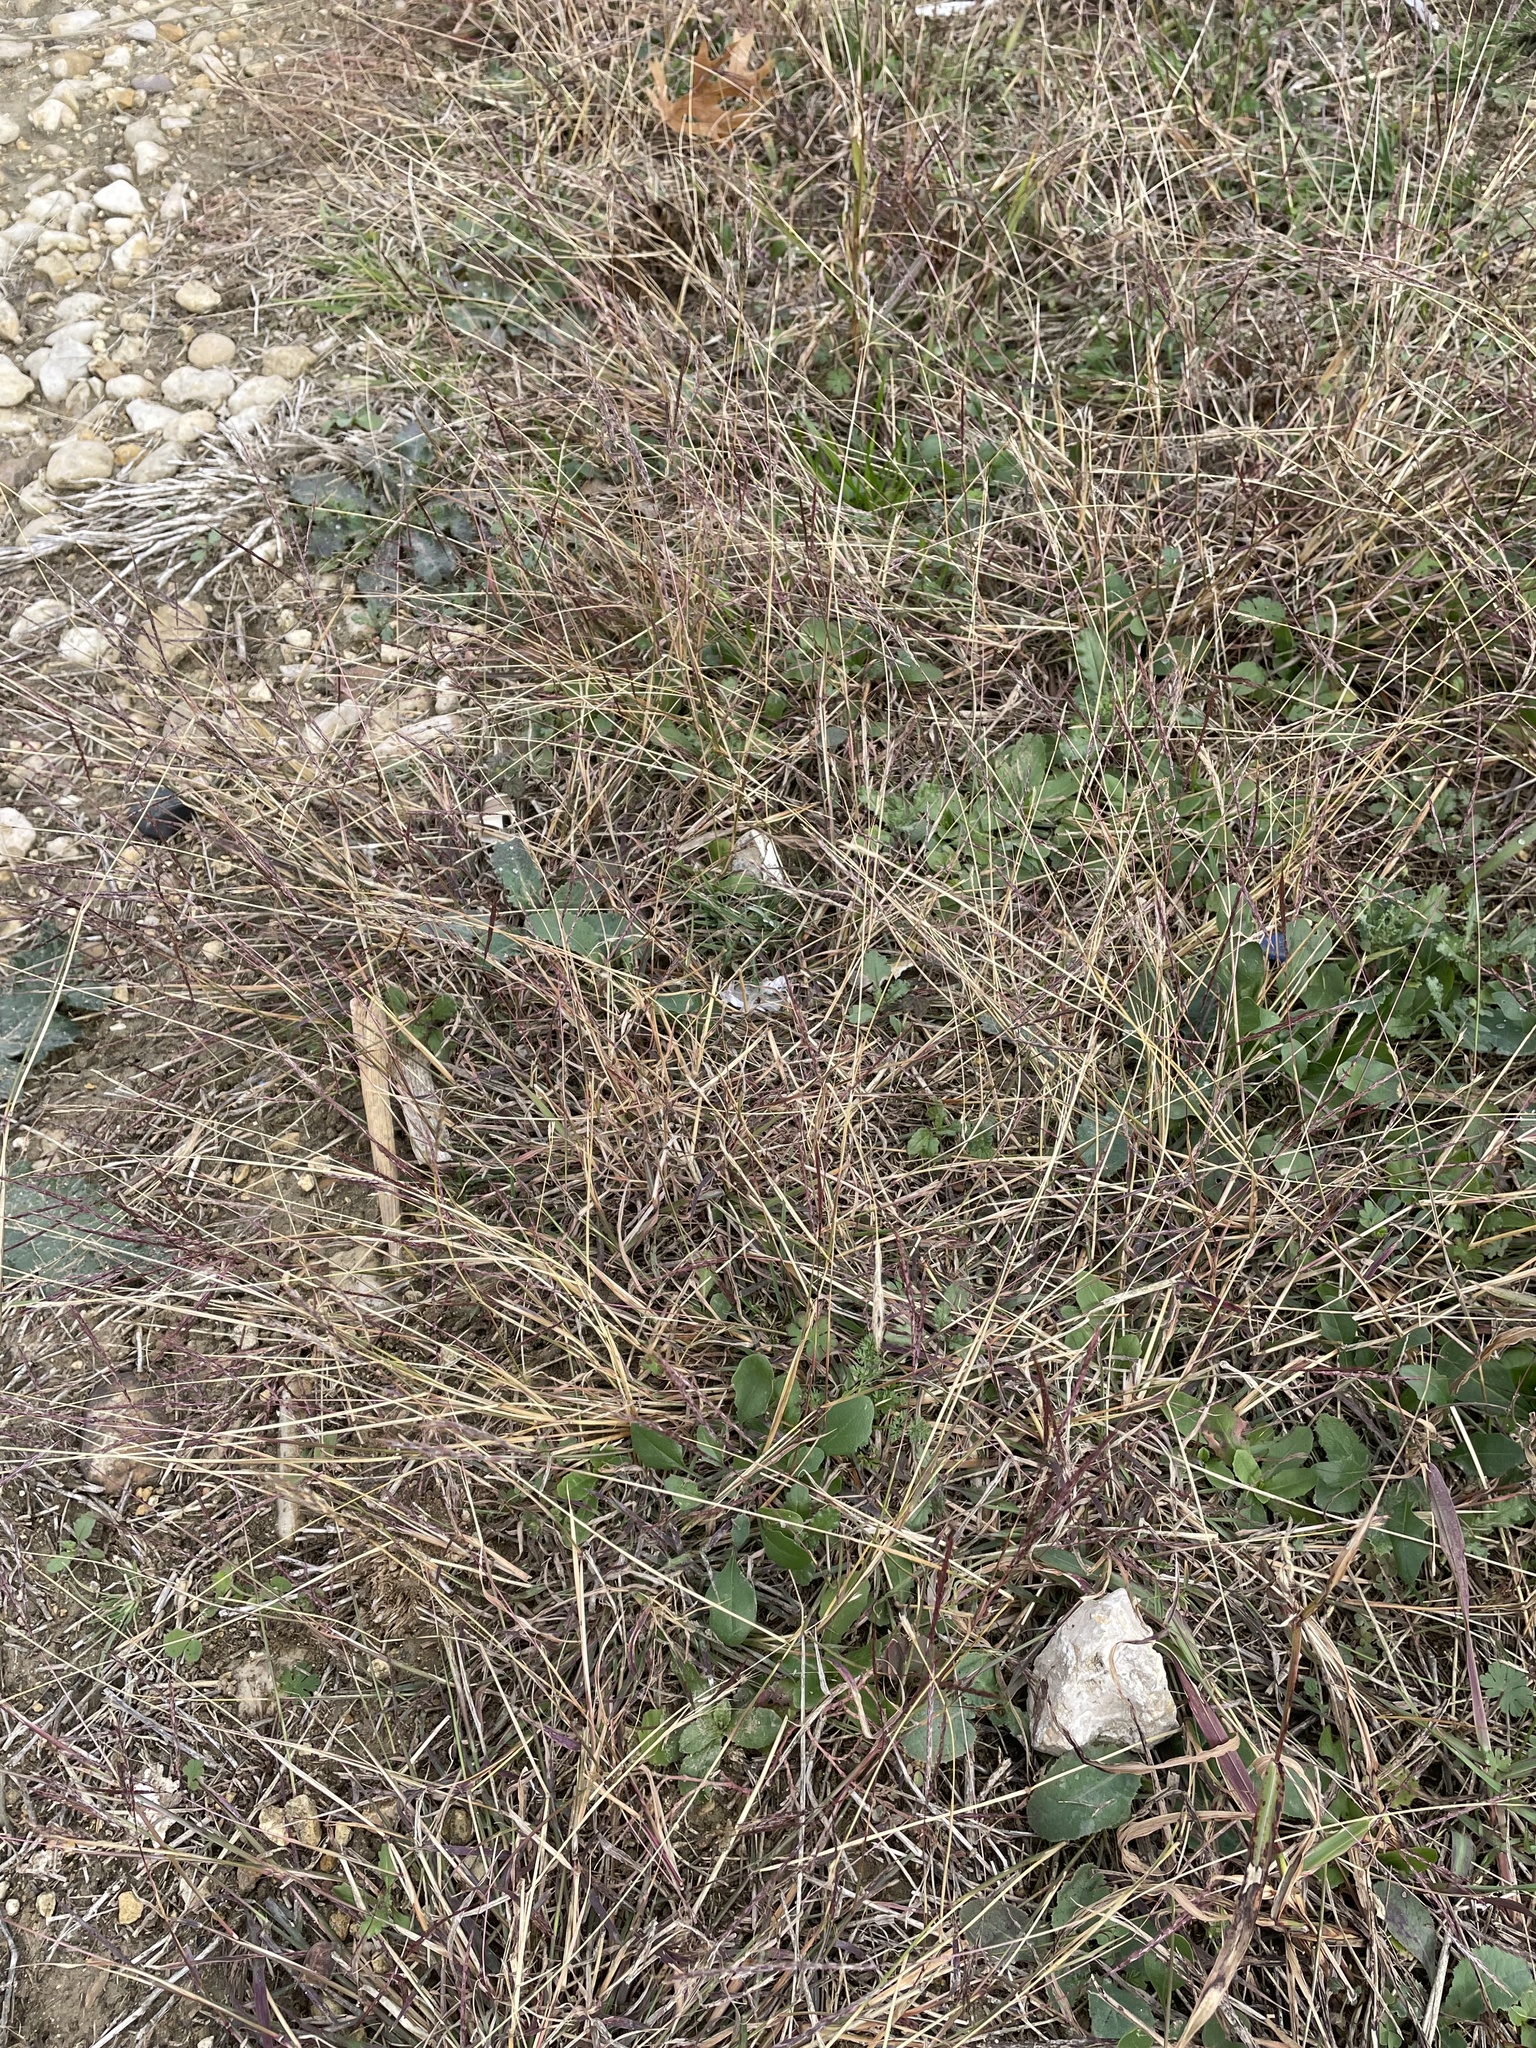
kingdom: Plantae
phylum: Tracheophyta
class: Liliopsida
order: Poales
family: Poaceae
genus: Bothriochloa
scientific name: Bothriochloa ischaemum
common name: Yellow bluestem
